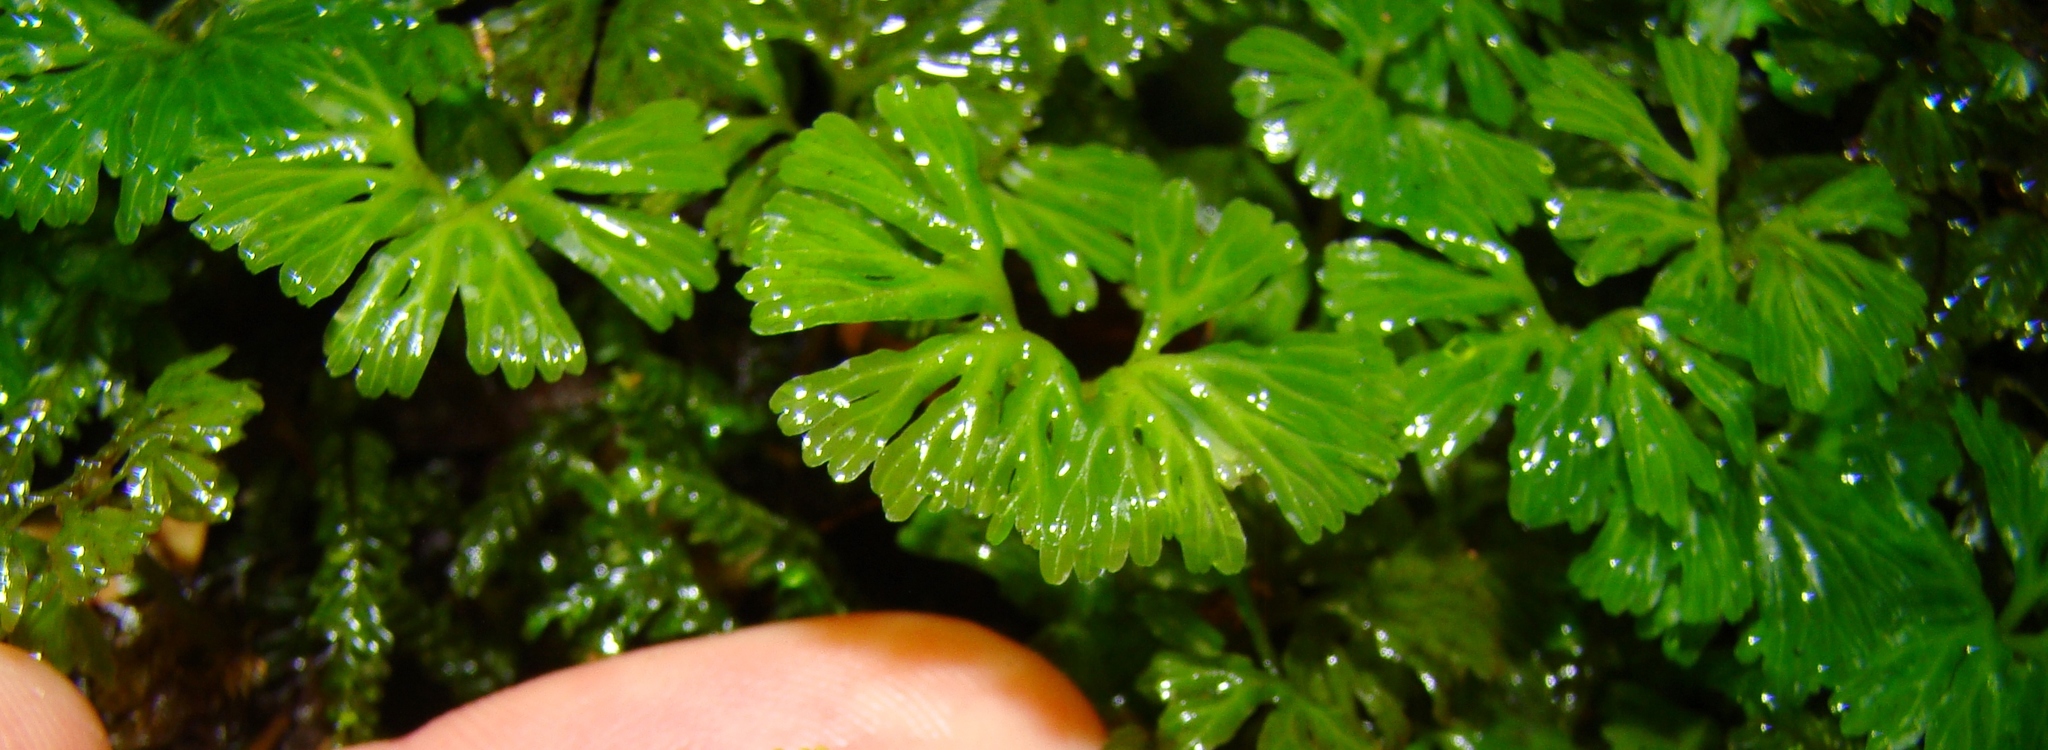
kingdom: Plantae
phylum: Marchantiophyta
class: Jungermanniopsida
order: Pallaviciniales
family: Hymenophytaceae
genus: Hymenophyton
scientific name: Hymenophyton flabellatum
